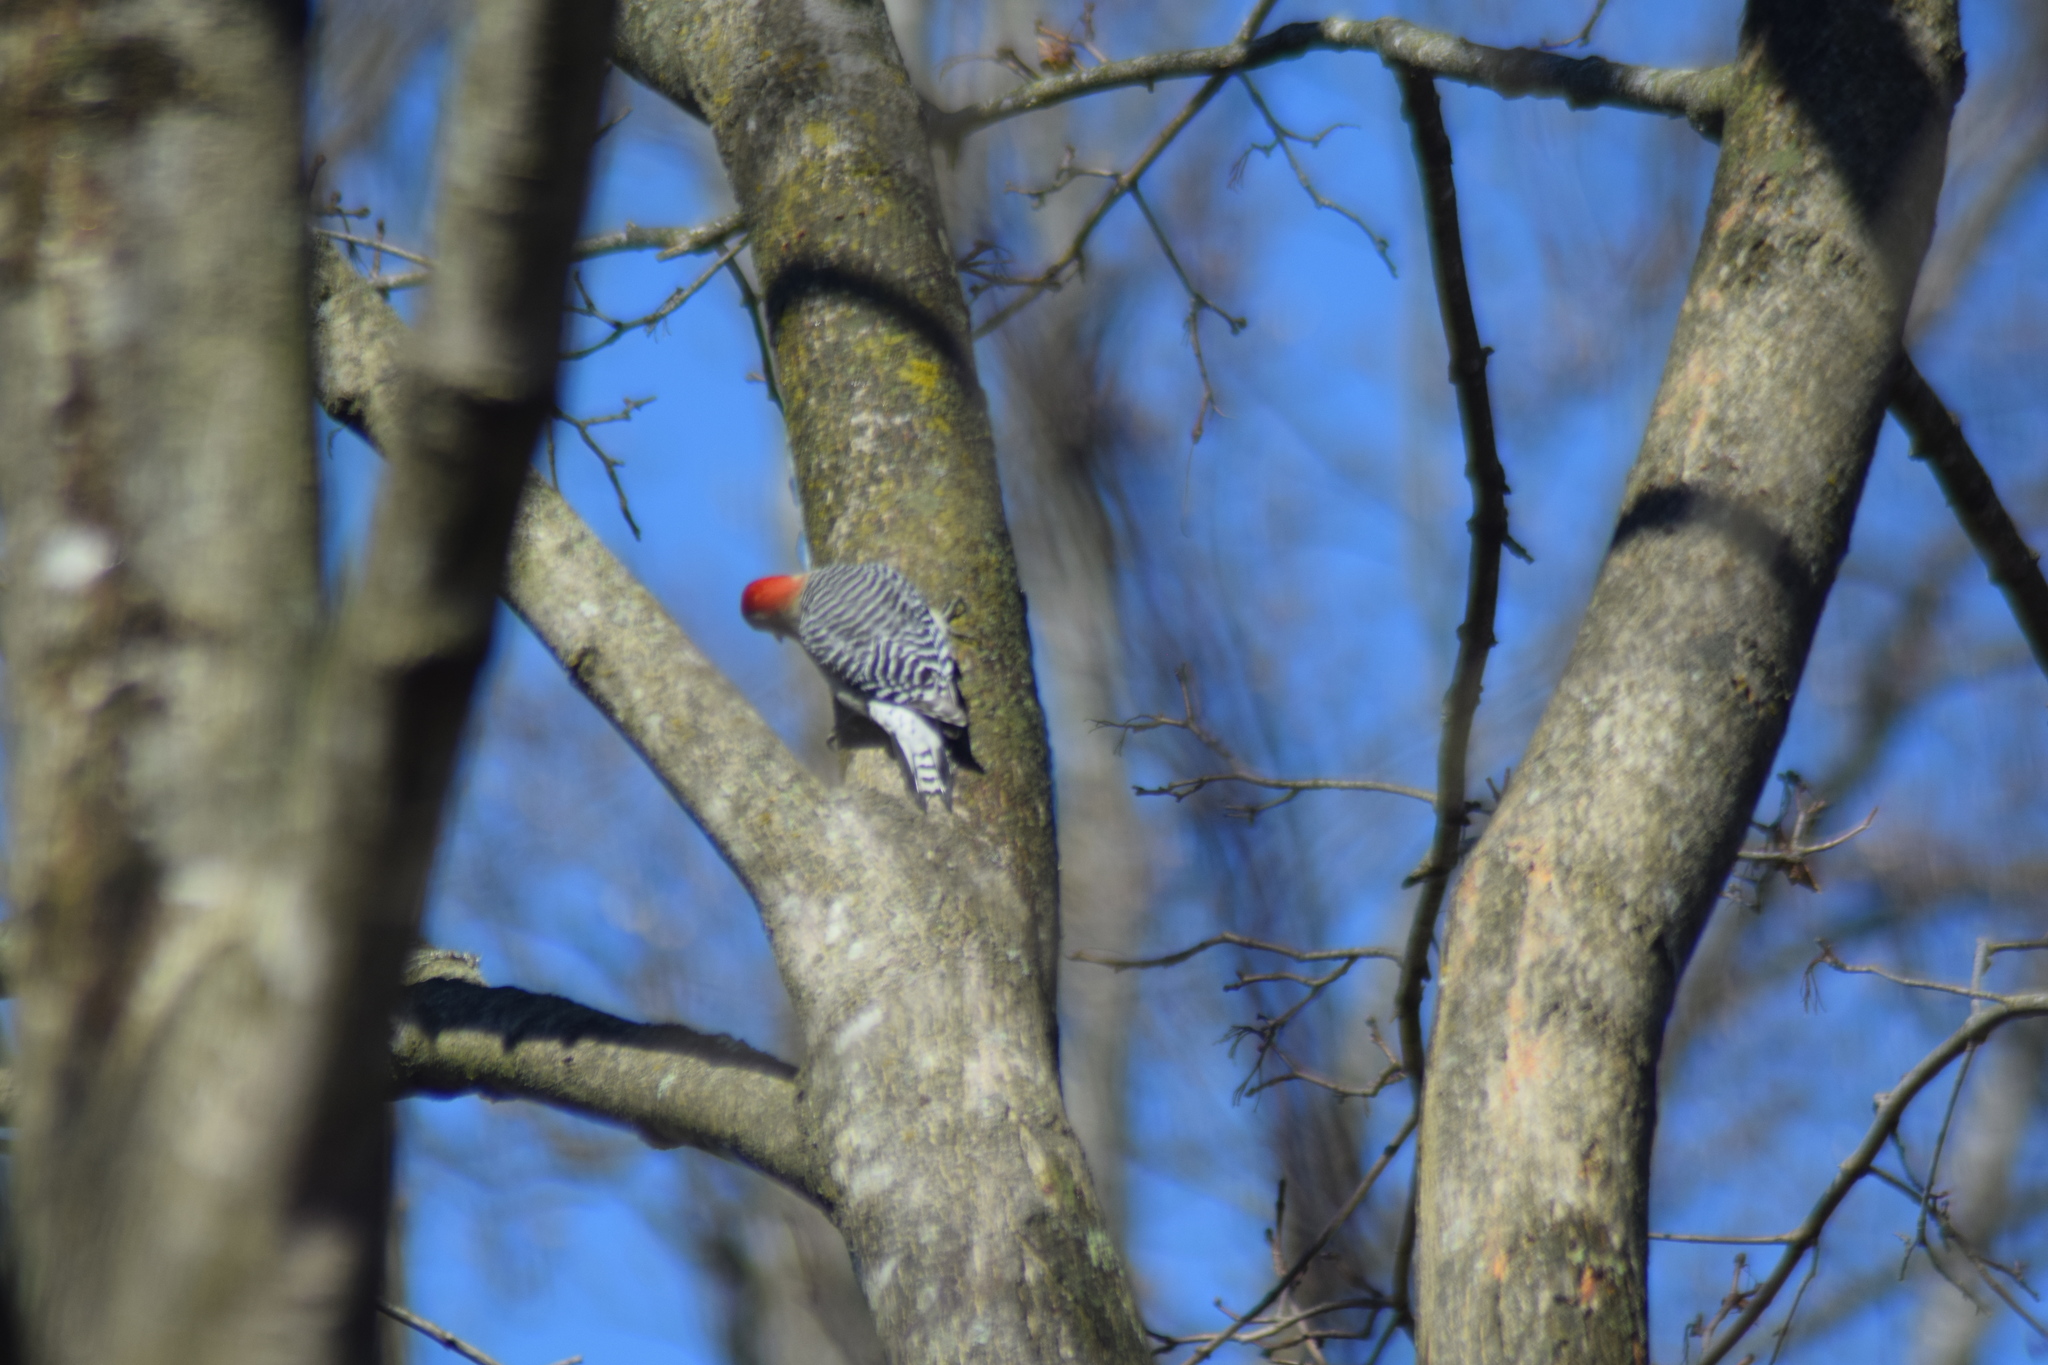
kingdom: Animalia
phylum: Chordata
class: Aves
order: Piciformes
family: Picidae
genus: Melanerpes
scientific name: Melanerpes carolinus
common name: Red-bellied woodpecker
